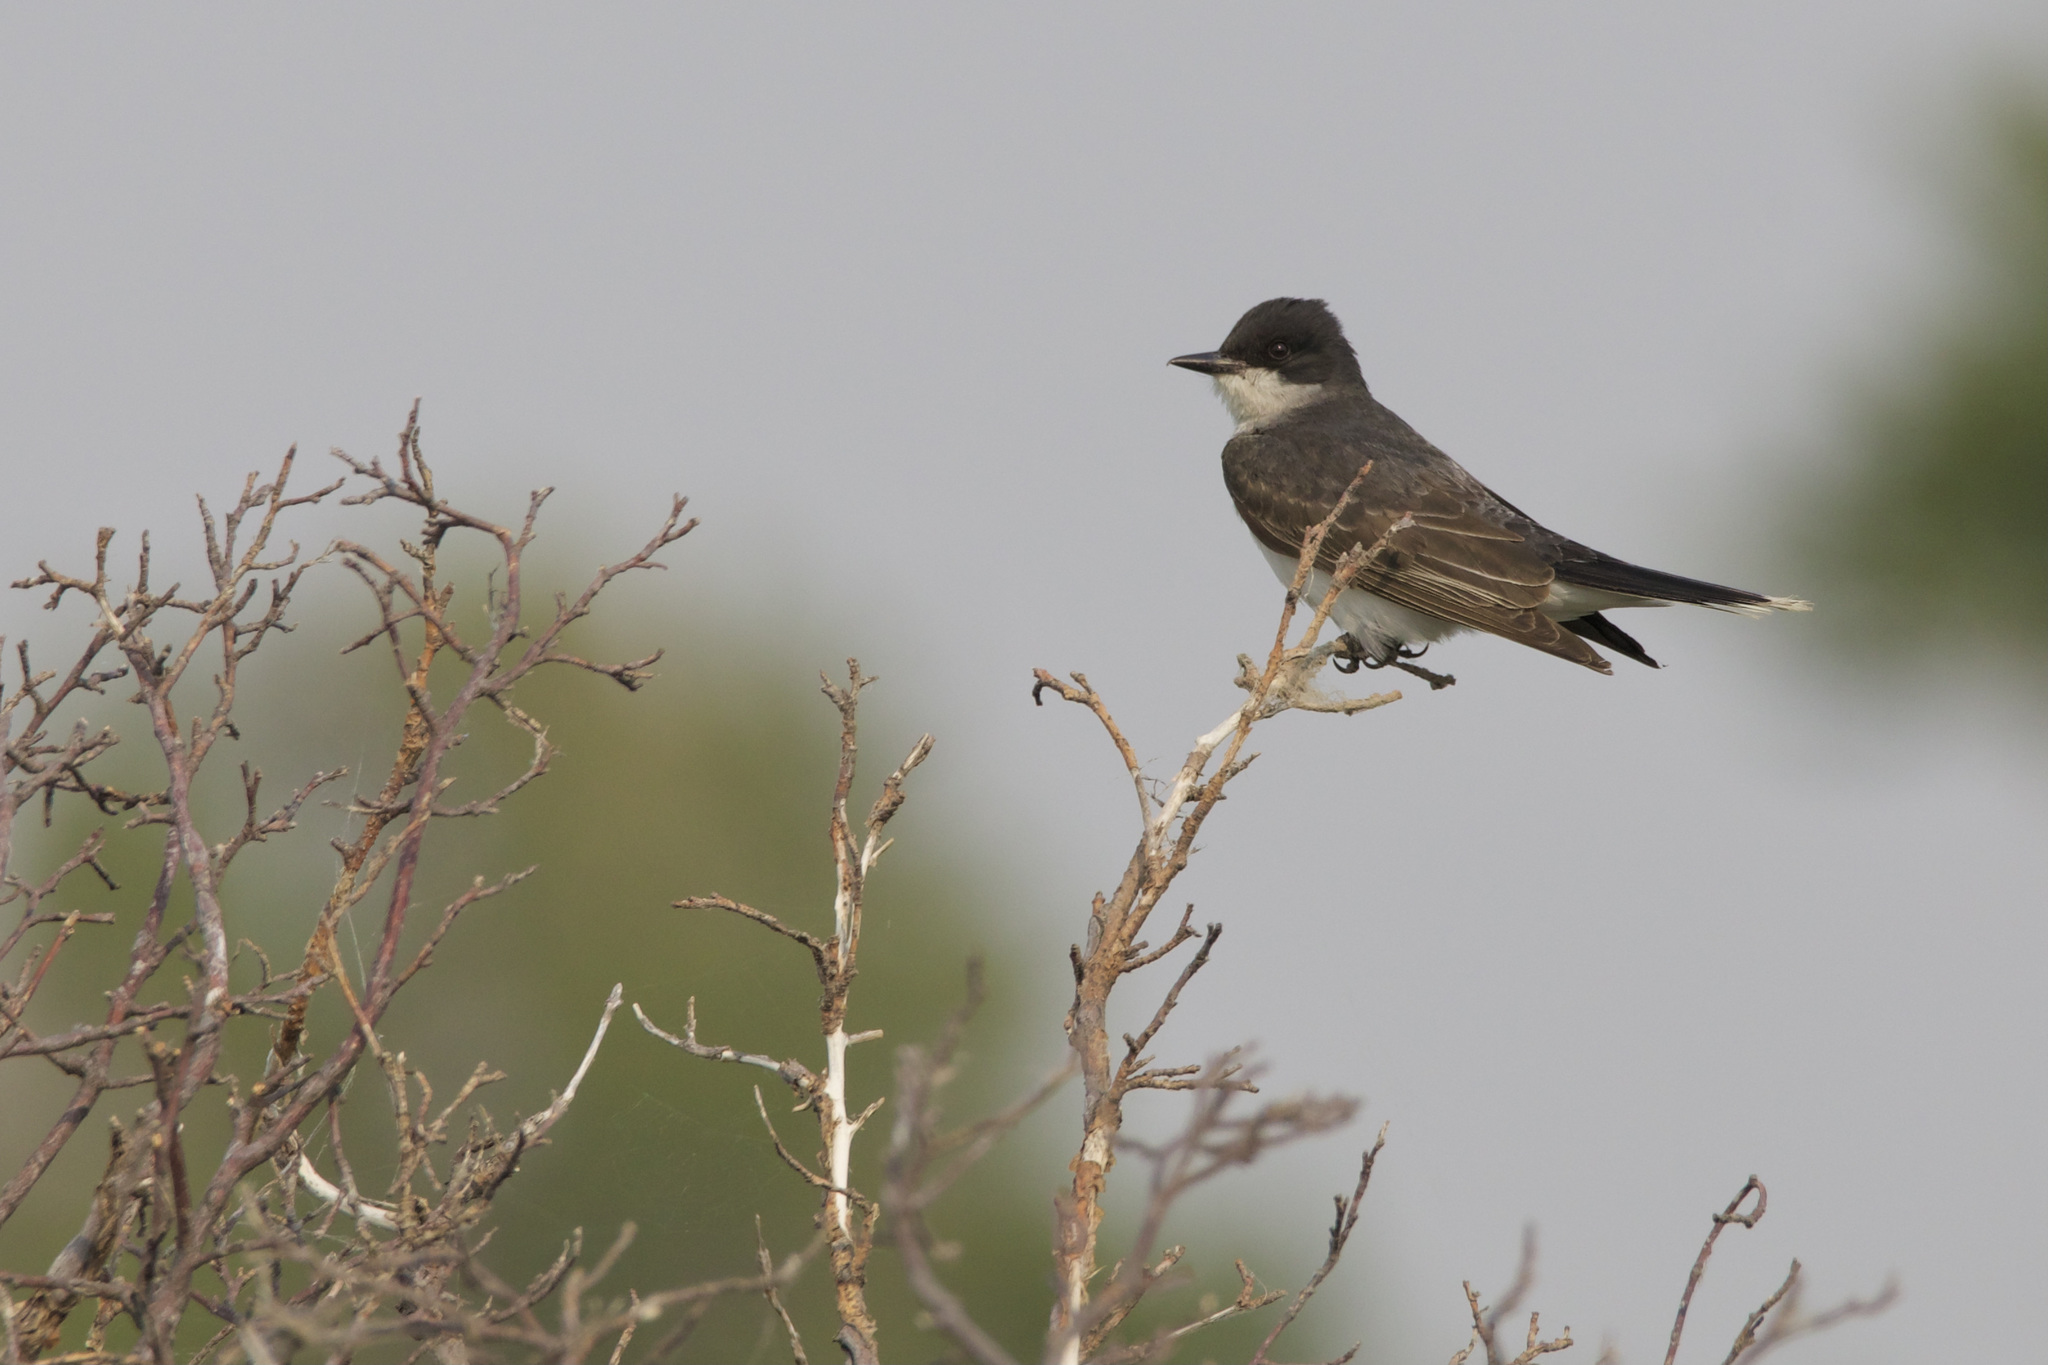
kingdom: Animalia
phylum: Chordata
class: Aves
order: Passeriformes
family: Tyrannidae
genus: Tyrannus
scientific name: Tyrannus tyrannus
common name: Eastern kingbird
